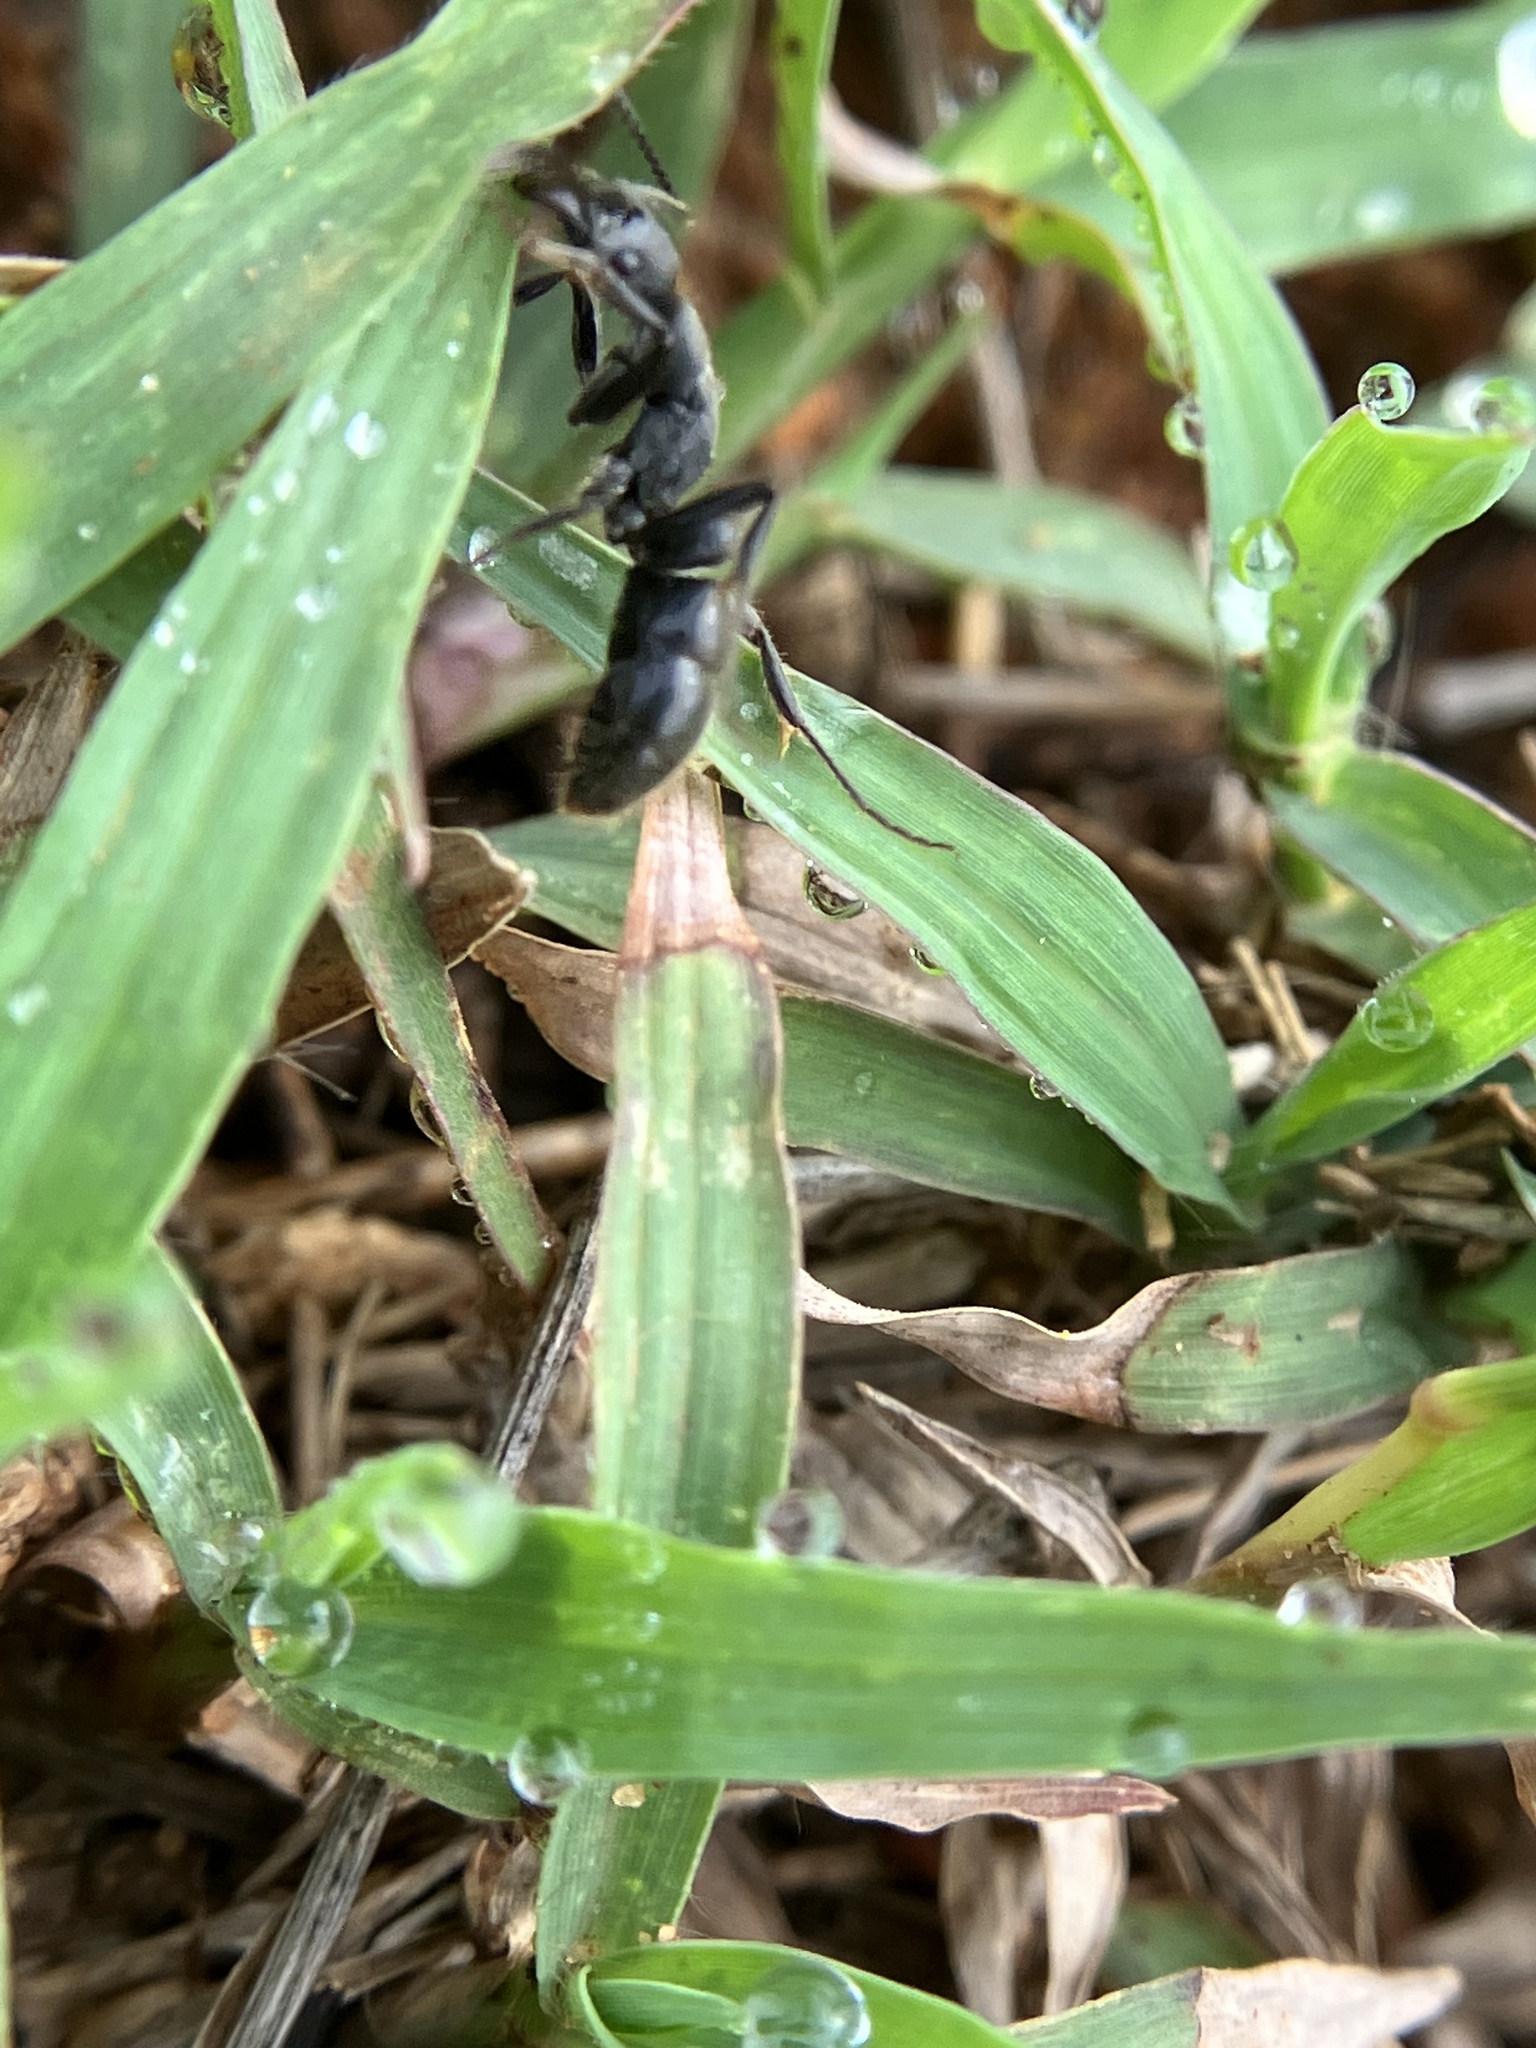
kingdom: Animalia
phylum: Arthropoda
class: Insecta
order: Hymenoptera
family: Formicidae
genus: Bothroponera
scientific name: Bothroponera
